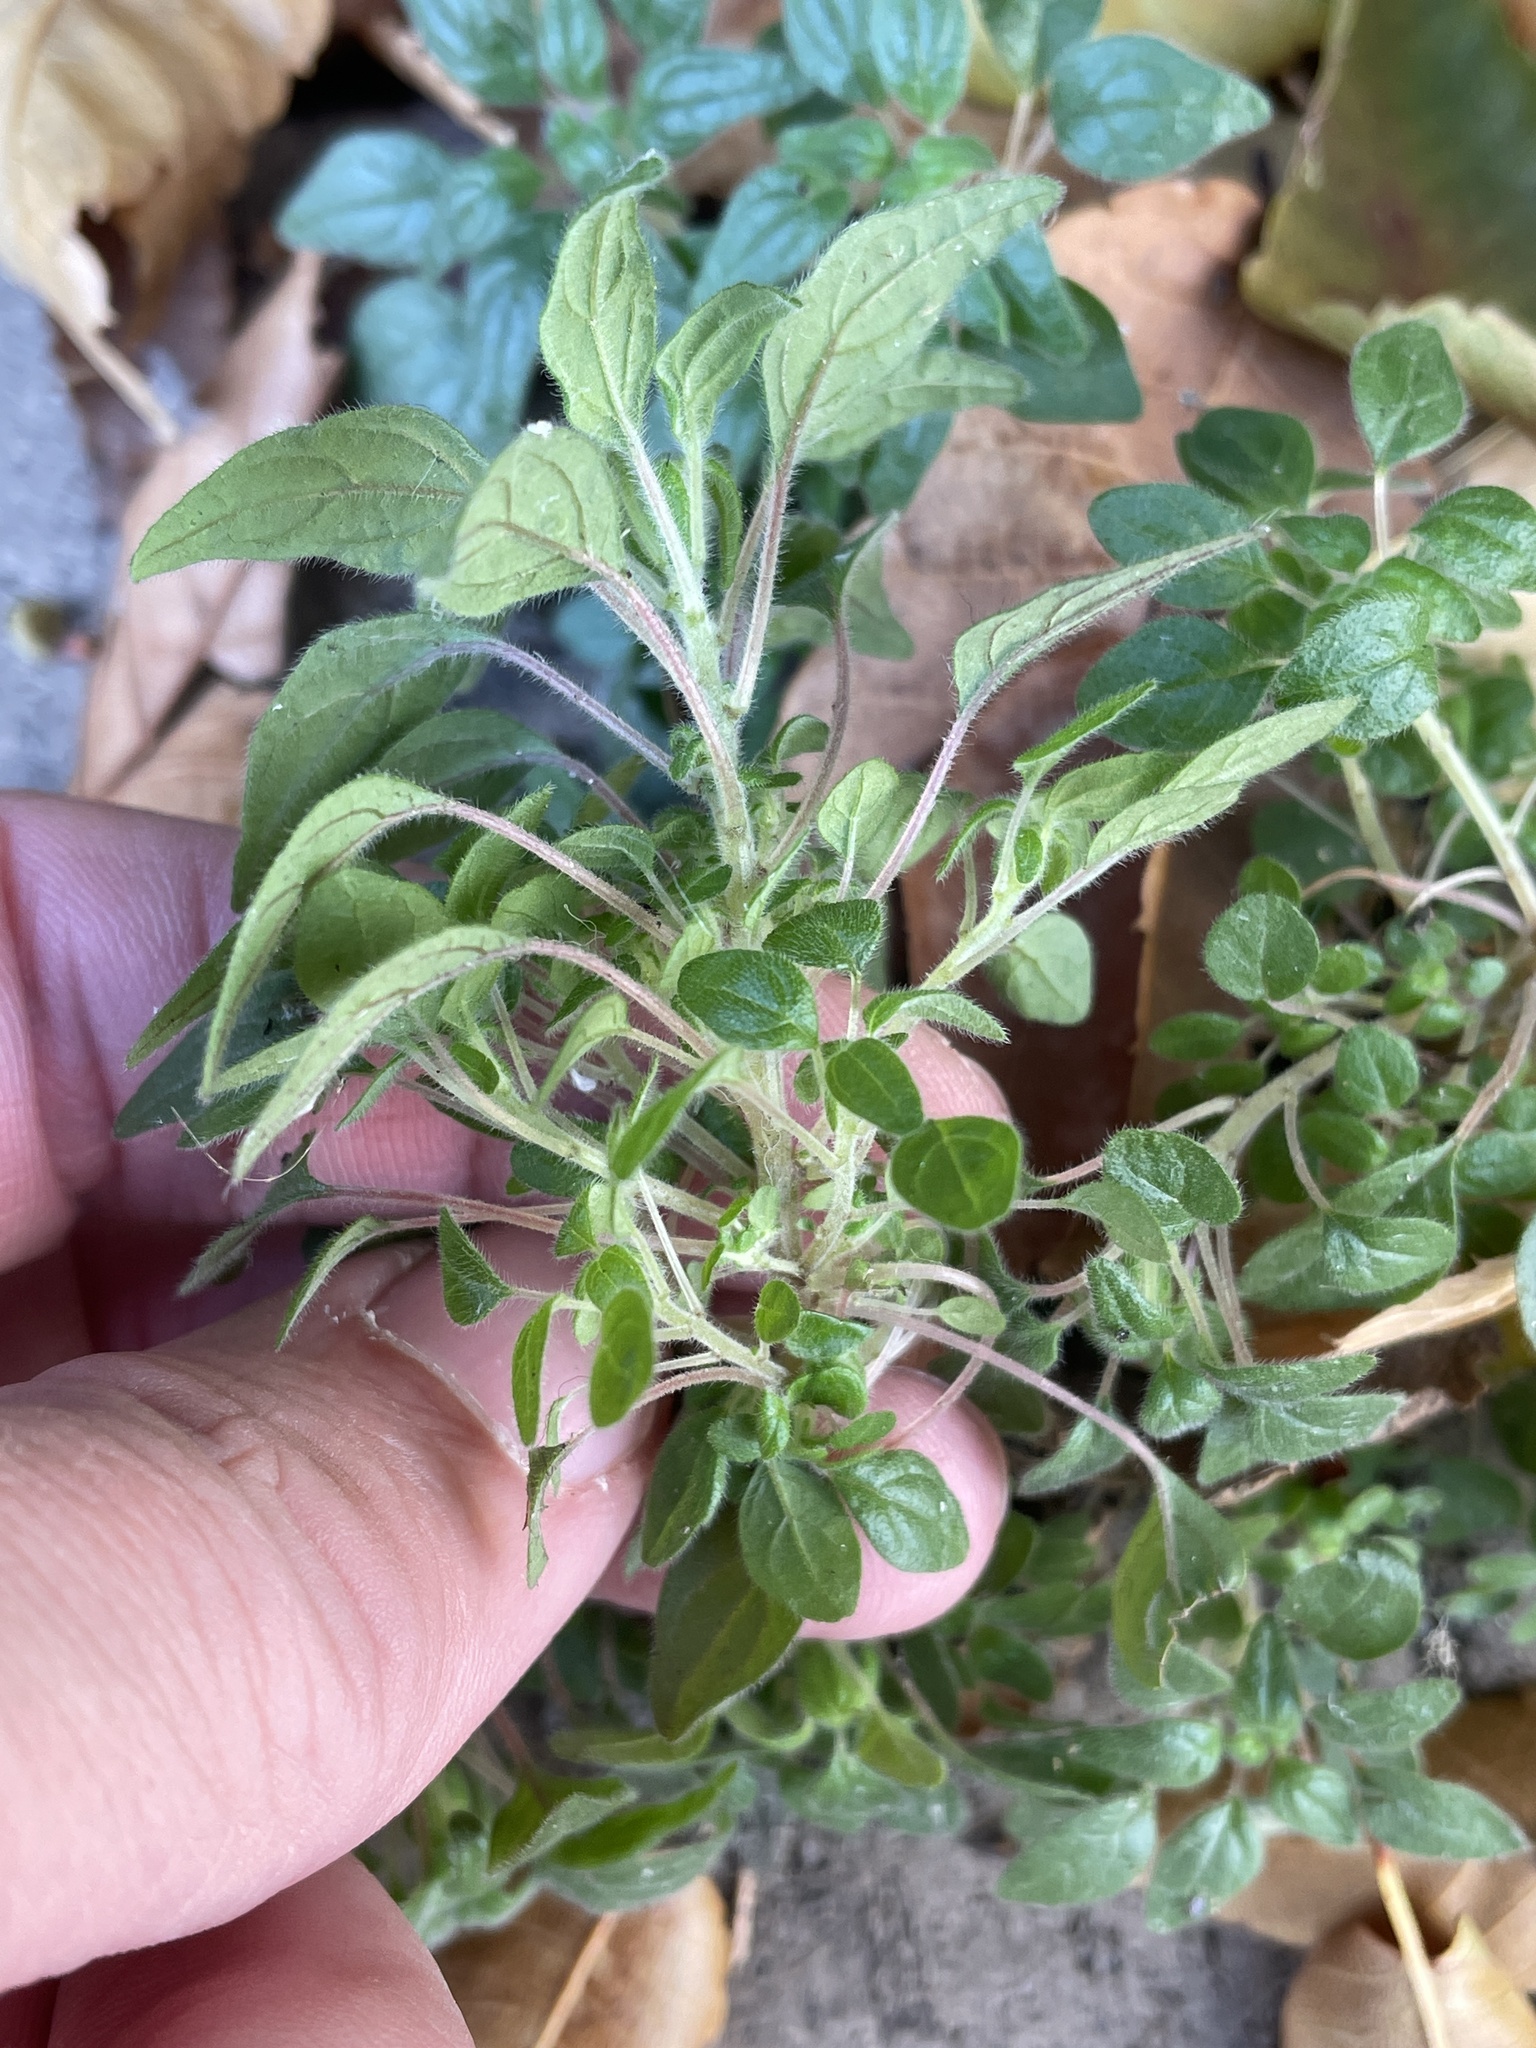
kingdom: Plantae
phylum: Tracheophyta
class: Magnoliopsida
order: Rosales
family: Urticaceae
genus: Parietaria
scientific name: Parietaria pensylvanica
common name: Pennsylvania pellitory
